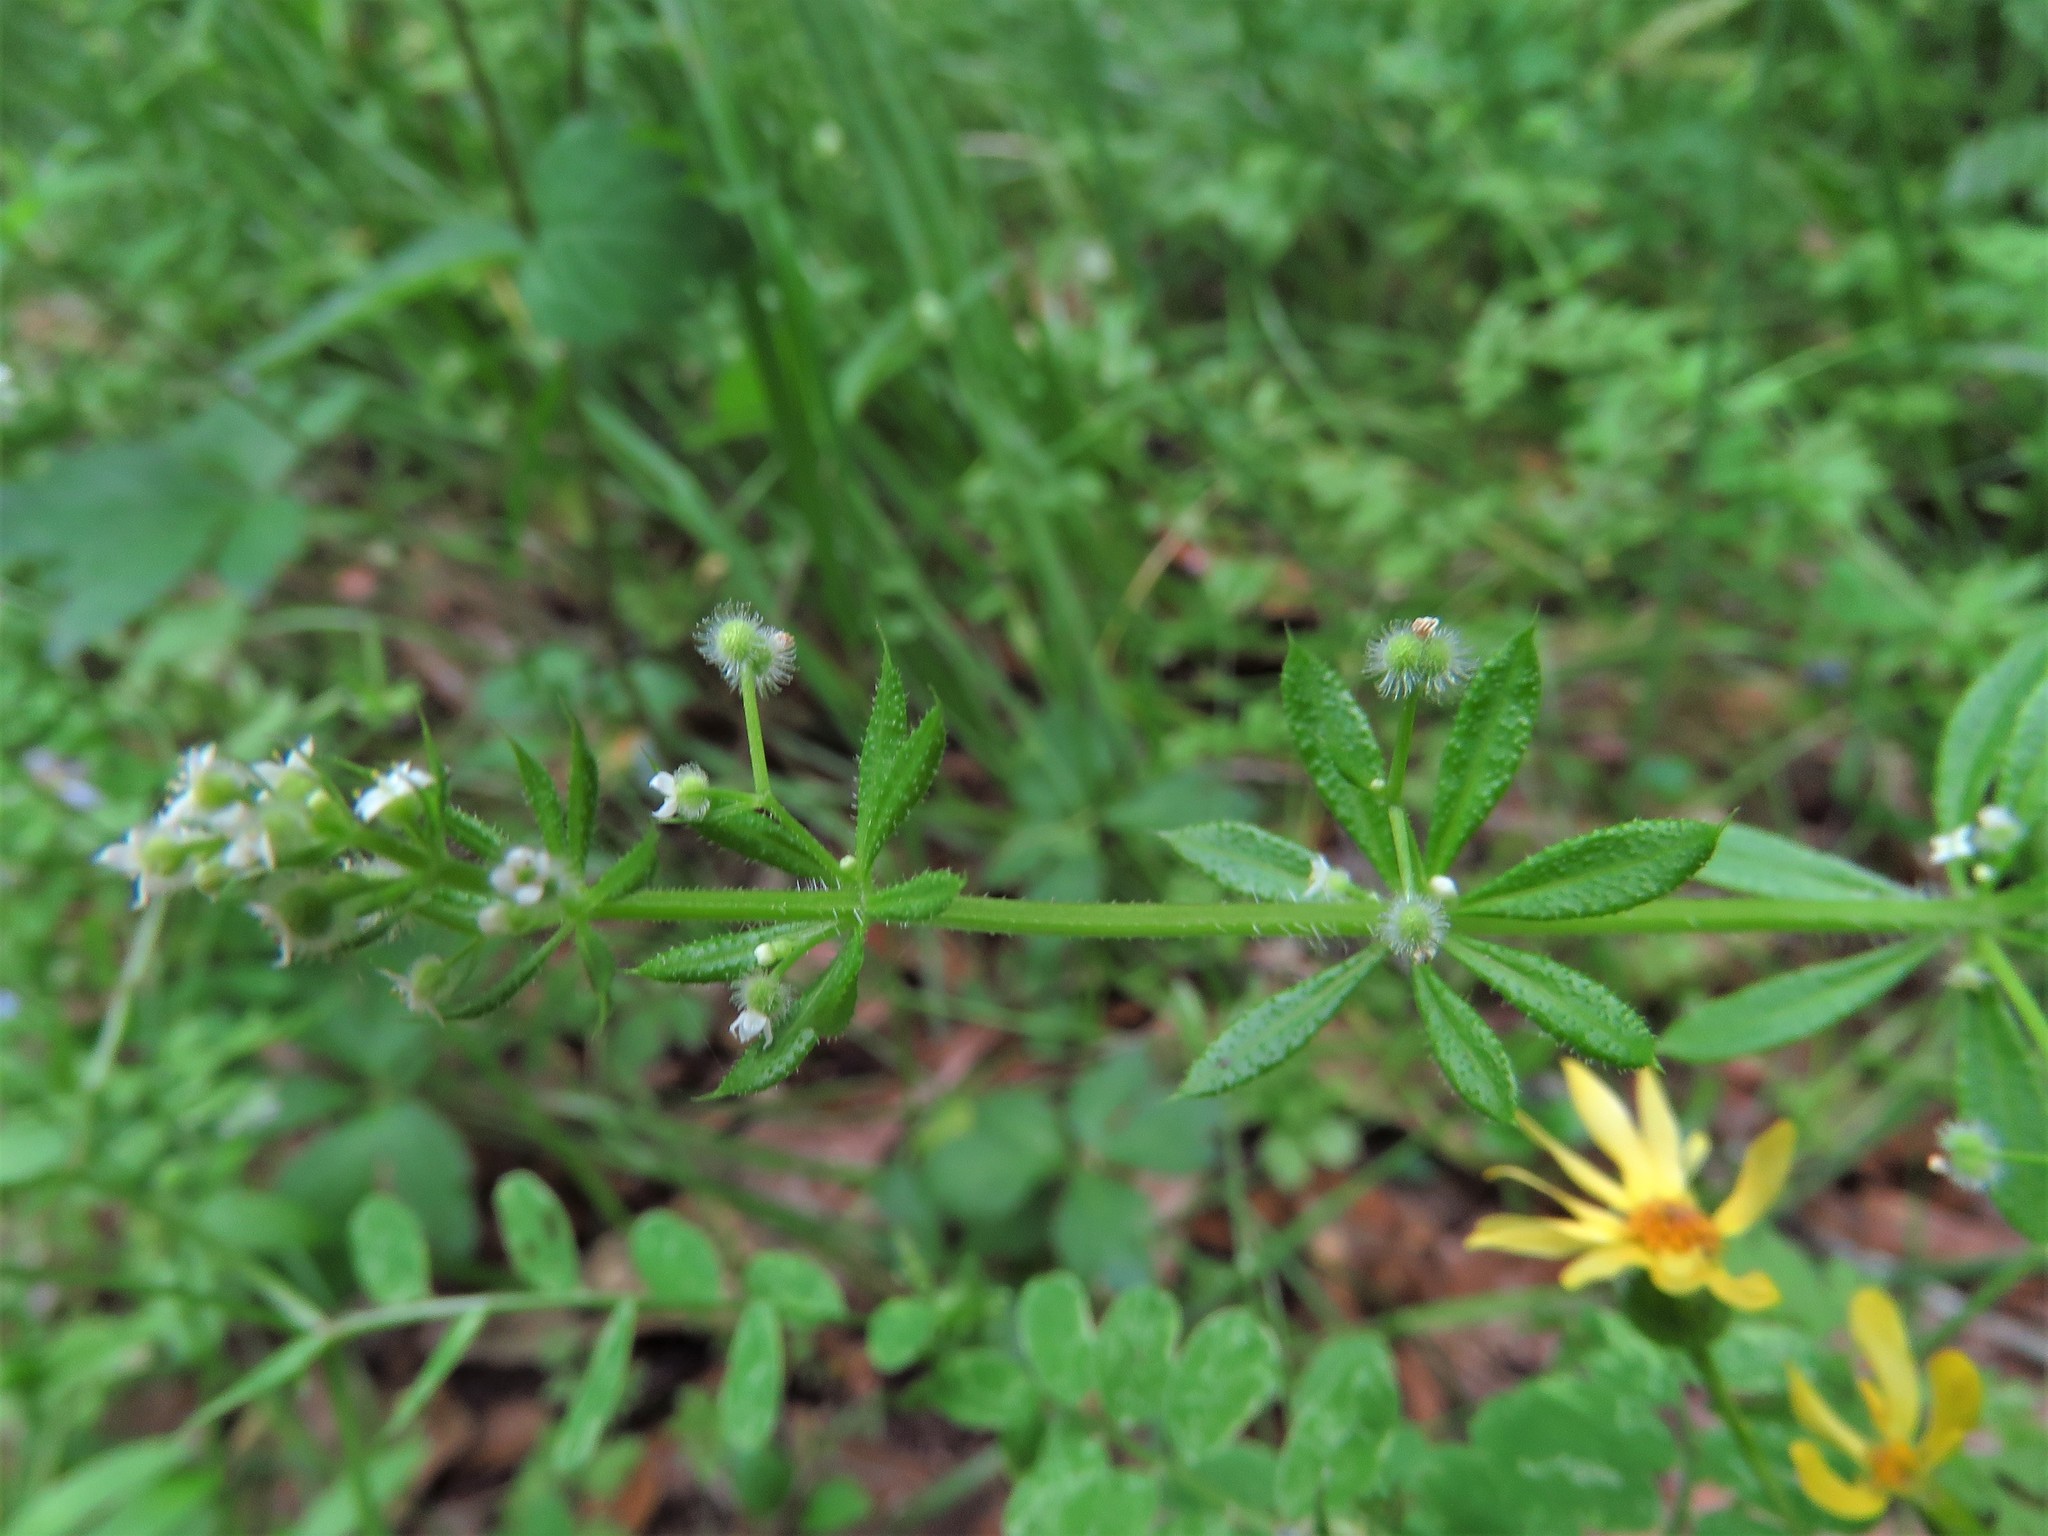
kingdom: Plantae
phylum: Tracheophyta
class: Magnoliopsida
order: Gentianales
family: Rubiaceae
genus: Galium
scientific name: Galium aparine
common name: Cleavers
